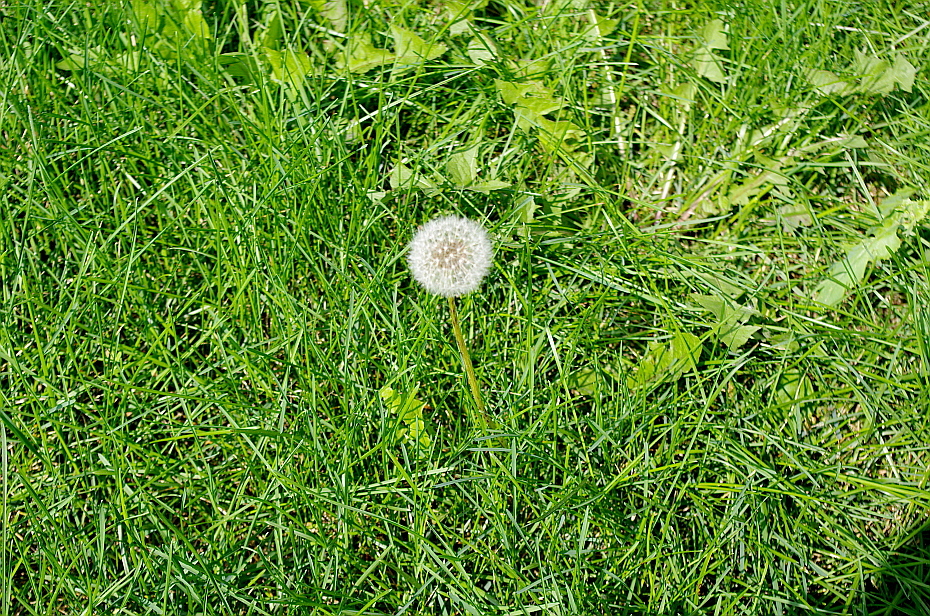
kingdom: Plantae
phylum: Tracheophyta
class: Magnoliopsida
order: Asterales
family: Asteraceae
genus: Taraxacum
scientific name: Taraxacum officinale
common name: Common dandelion
